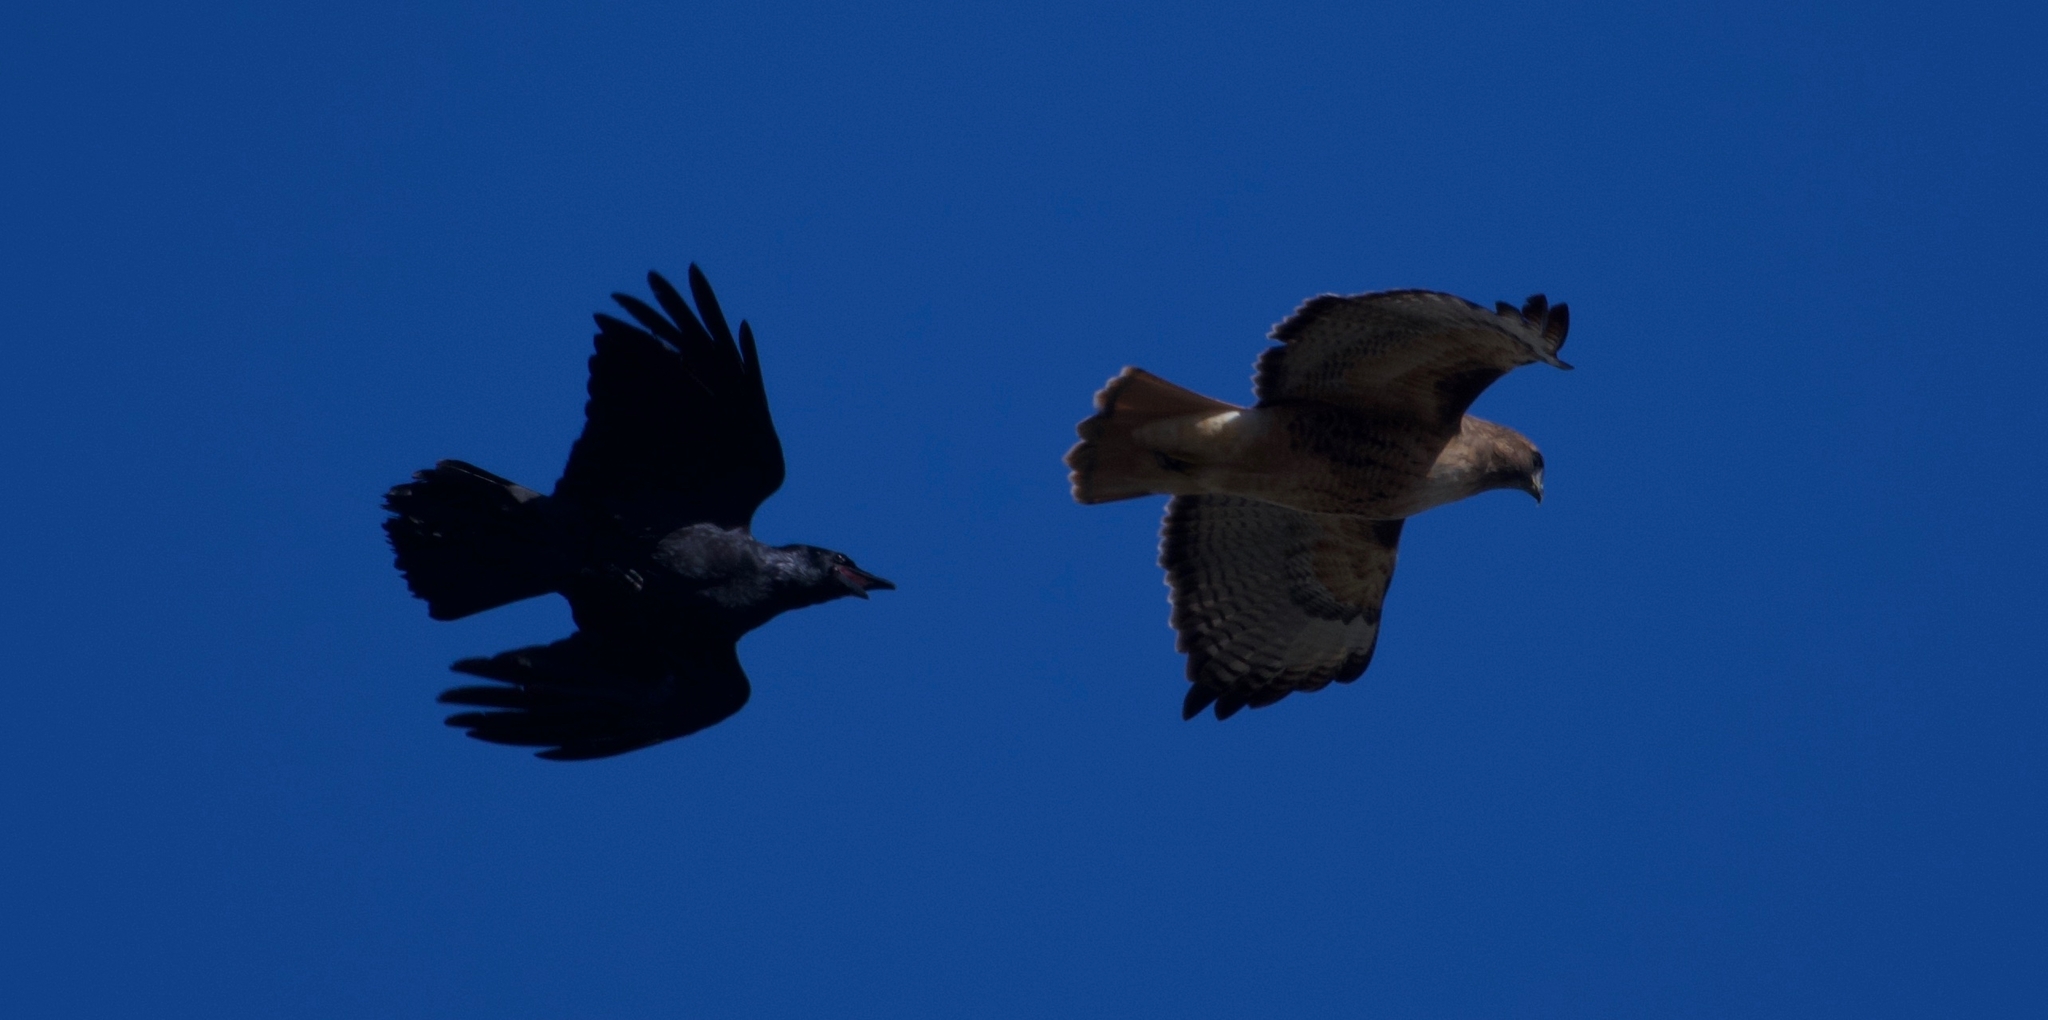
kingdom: Animalia
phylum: Chordata
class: Aves
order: Accipitriformes
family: Accipitridae
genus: Buteo
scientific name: Buteo jamaicensis
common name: Red-tailed hawk
